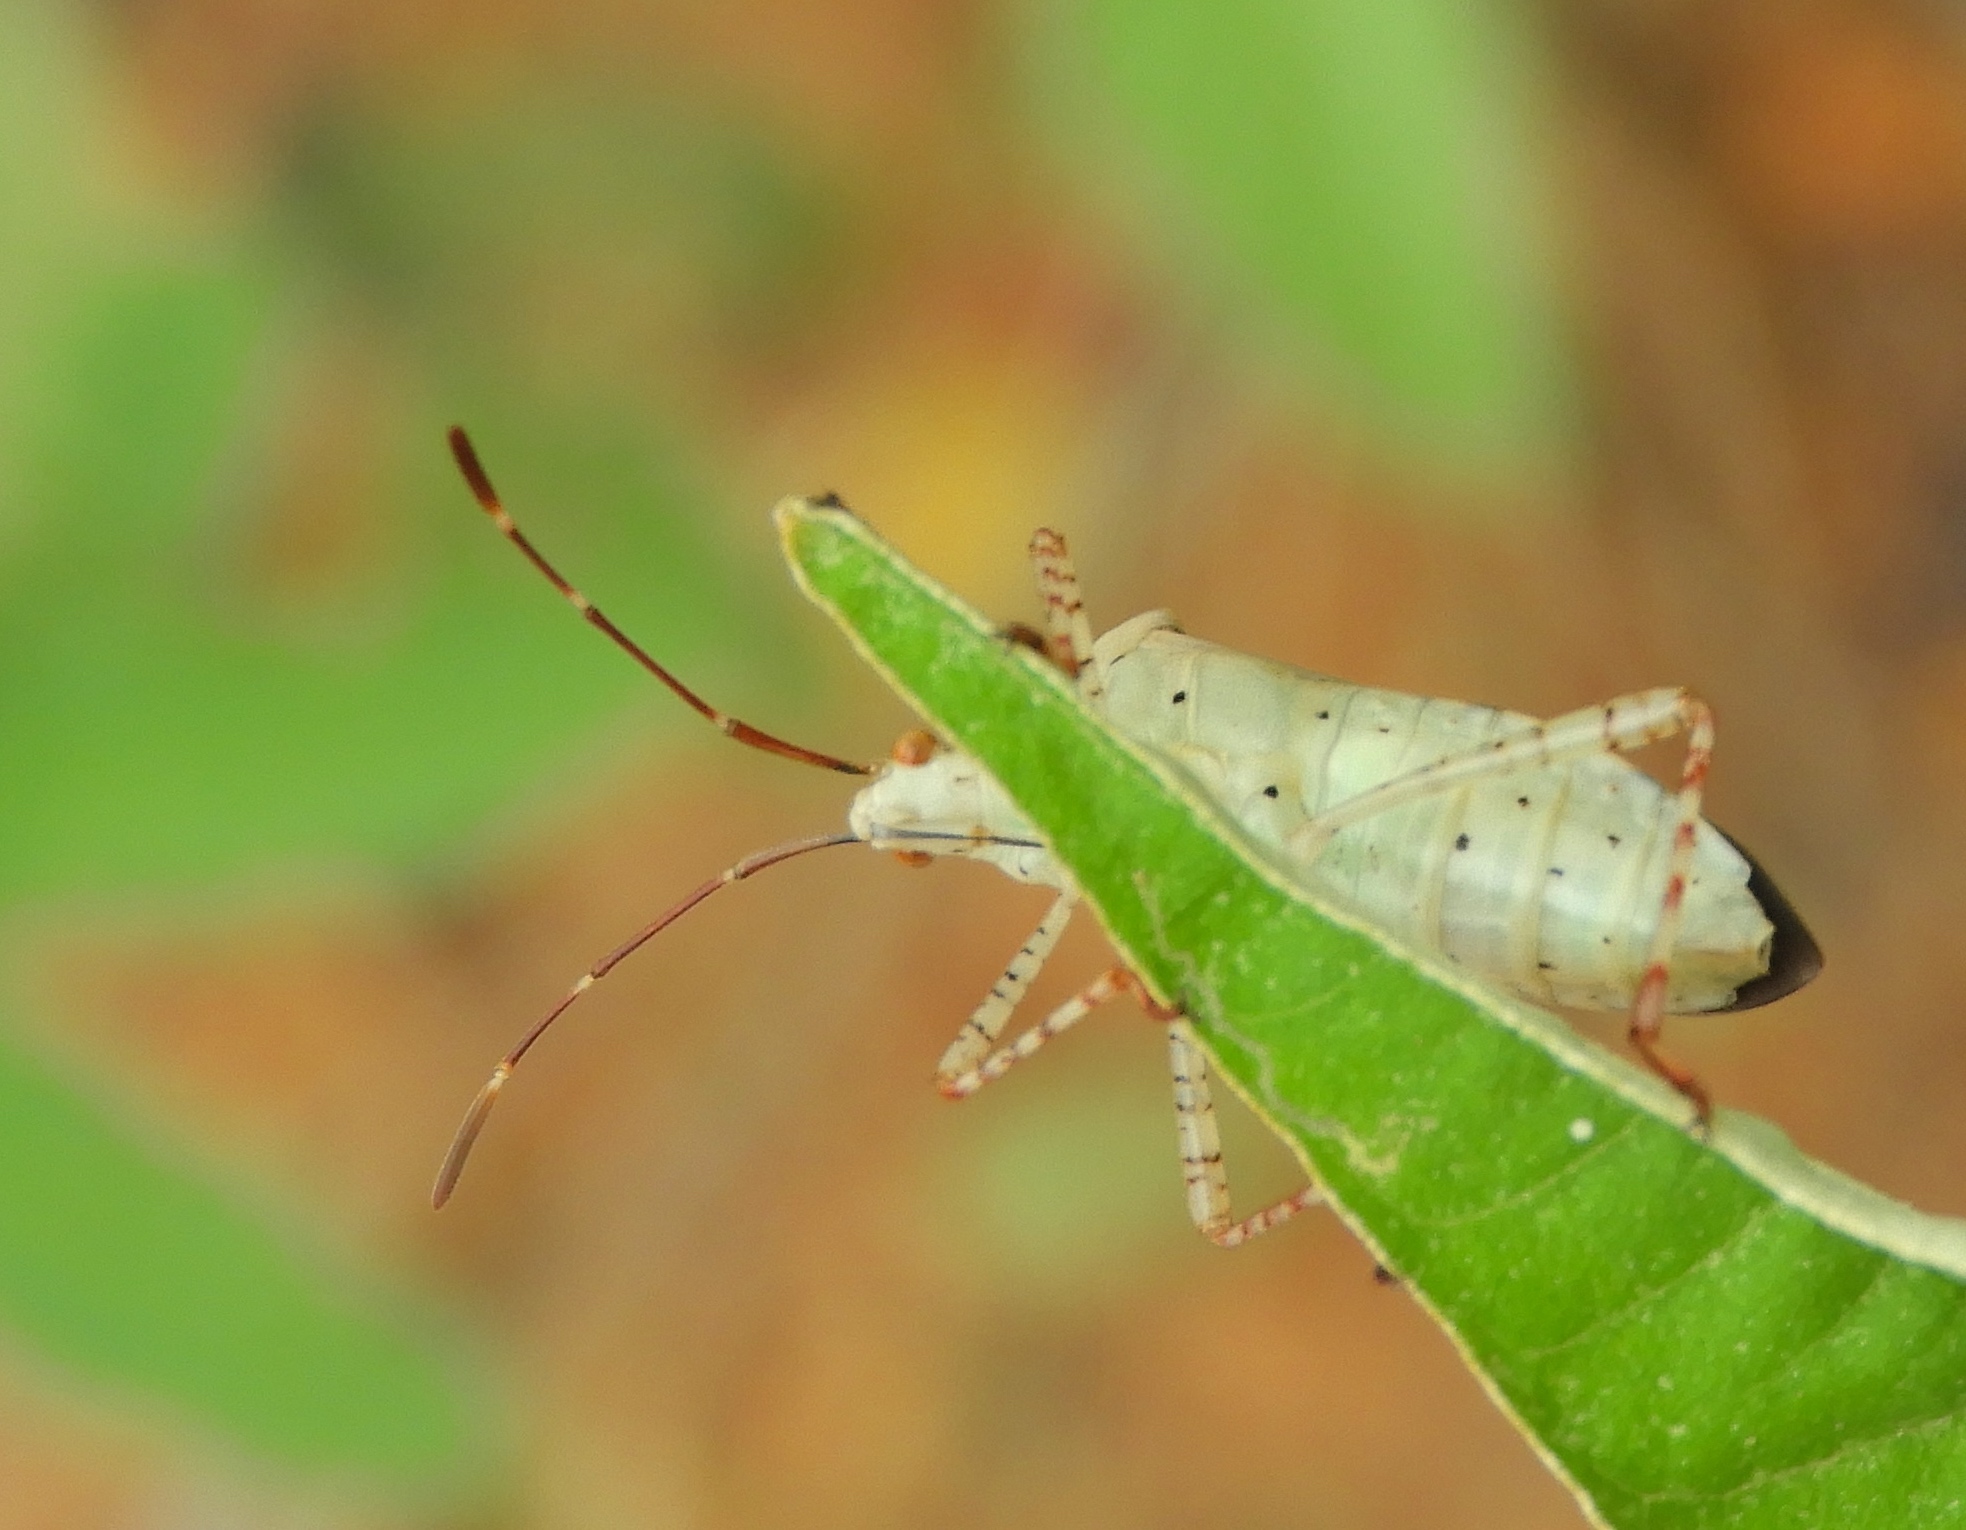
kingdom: Animalia
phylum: Arthropoda
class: Insecta
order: Hemiptera
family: Coreidae
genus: Hypselonotus
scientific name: Hypselonotus punctiventris
